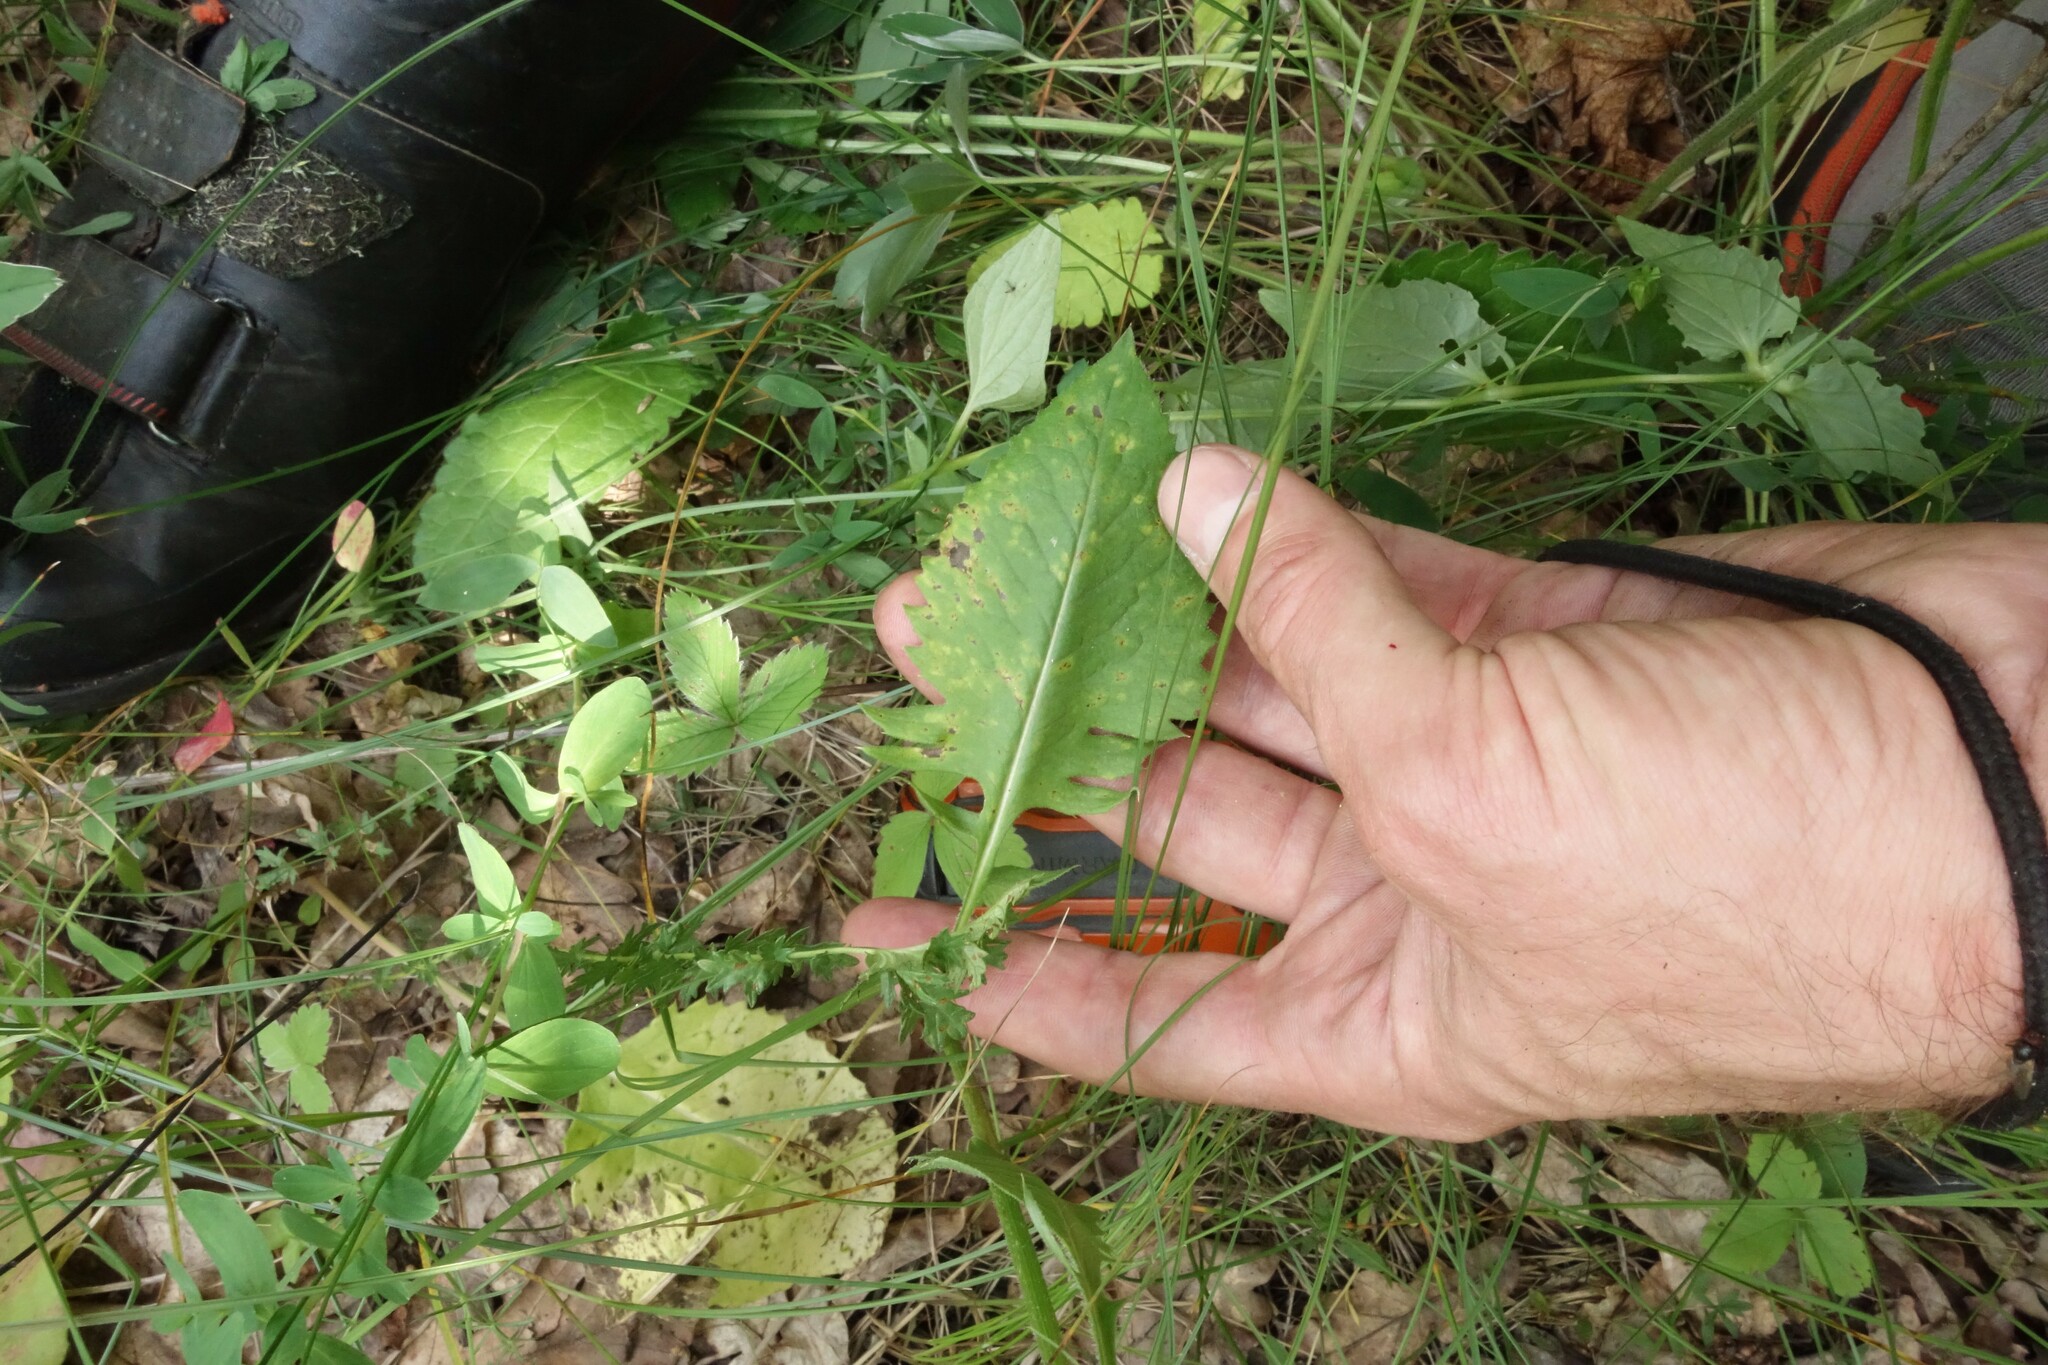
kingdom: Plantae
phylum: Tracheophyta
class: Magnoliopsida
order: Asterales
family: Asteraceae
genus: Klasea
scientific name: Klasea lycopifolia
